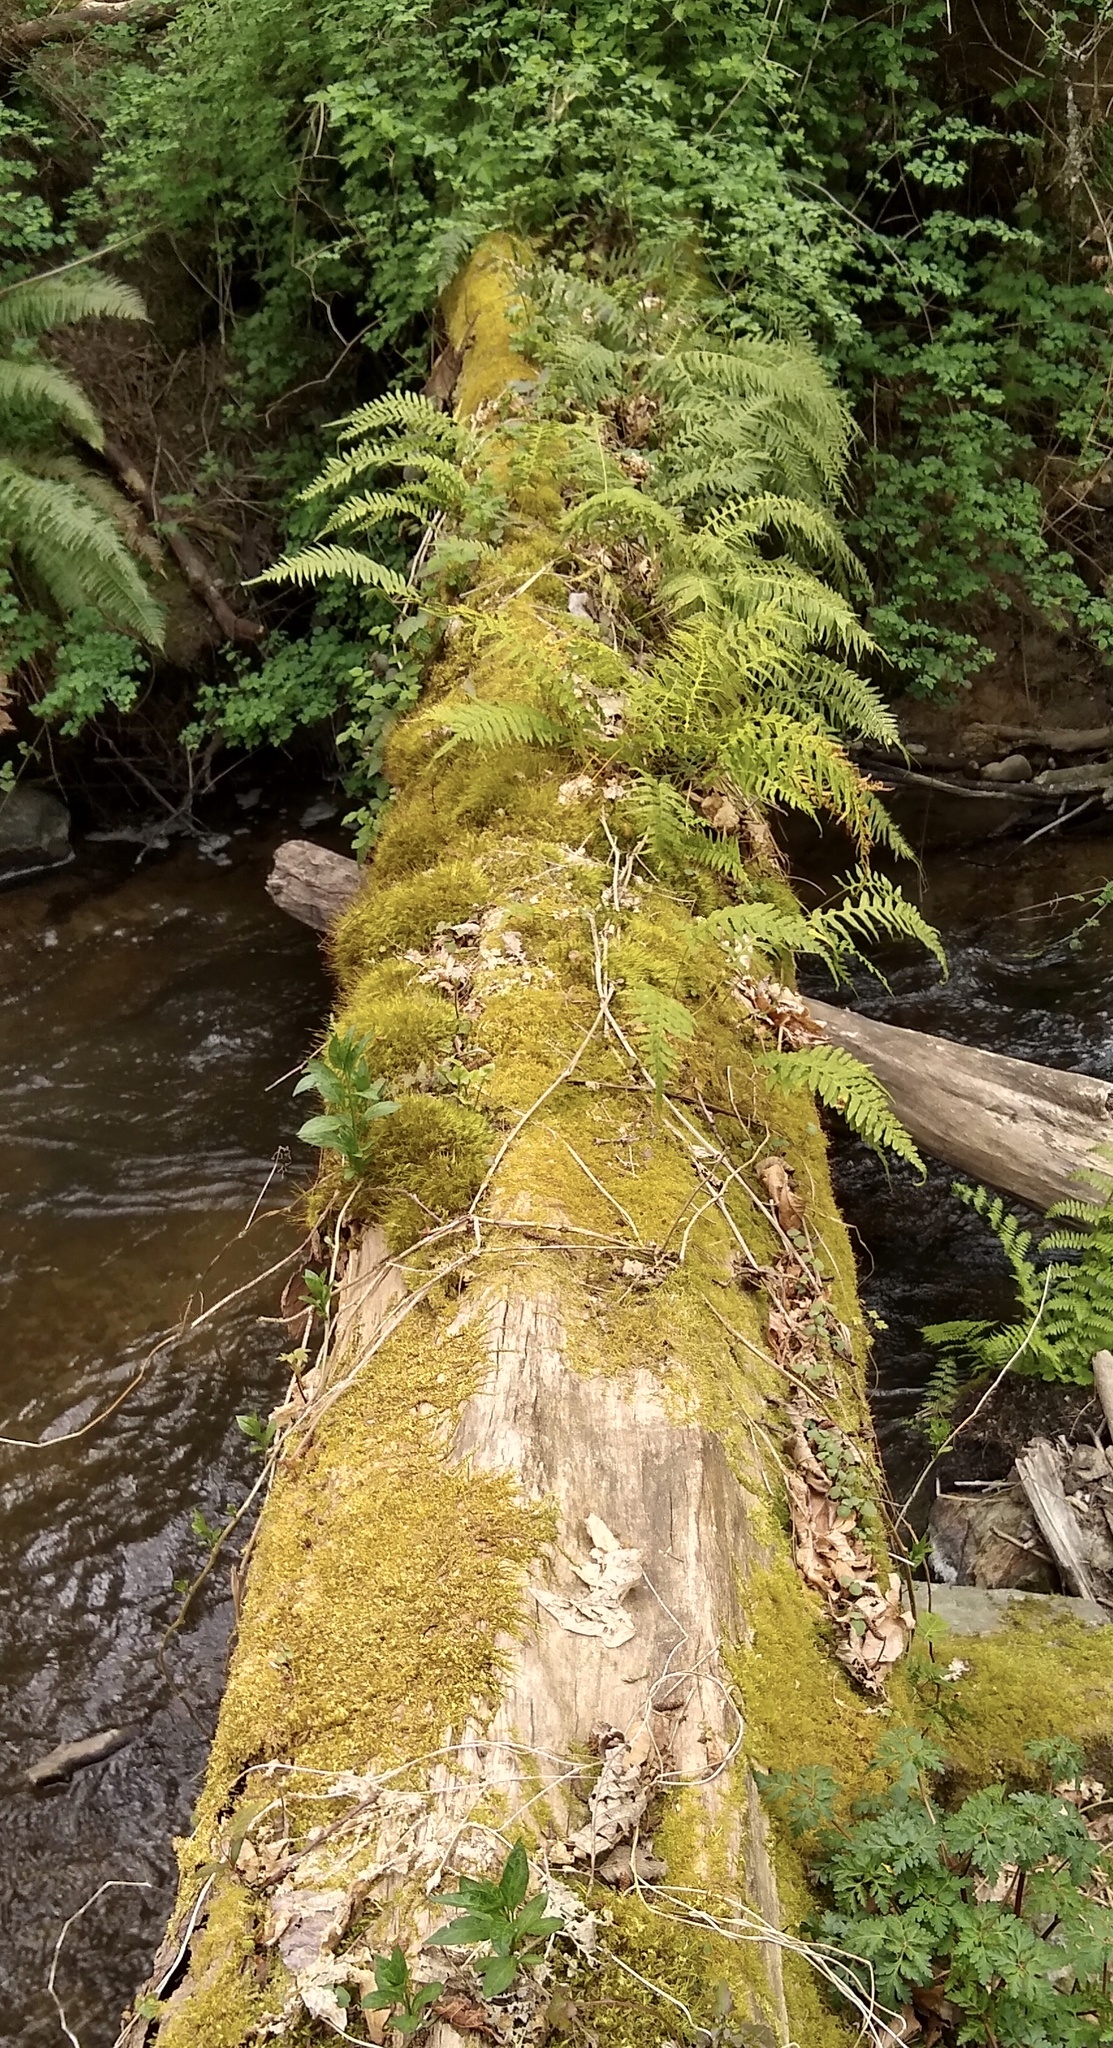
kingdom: Plantae
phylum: Tracheophyta
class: Polypodiopsida
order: Polypodiales
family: Polypodiaceae
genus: Polypodium
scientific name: Polypodium glycyrrhiza
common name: Licorice fern
